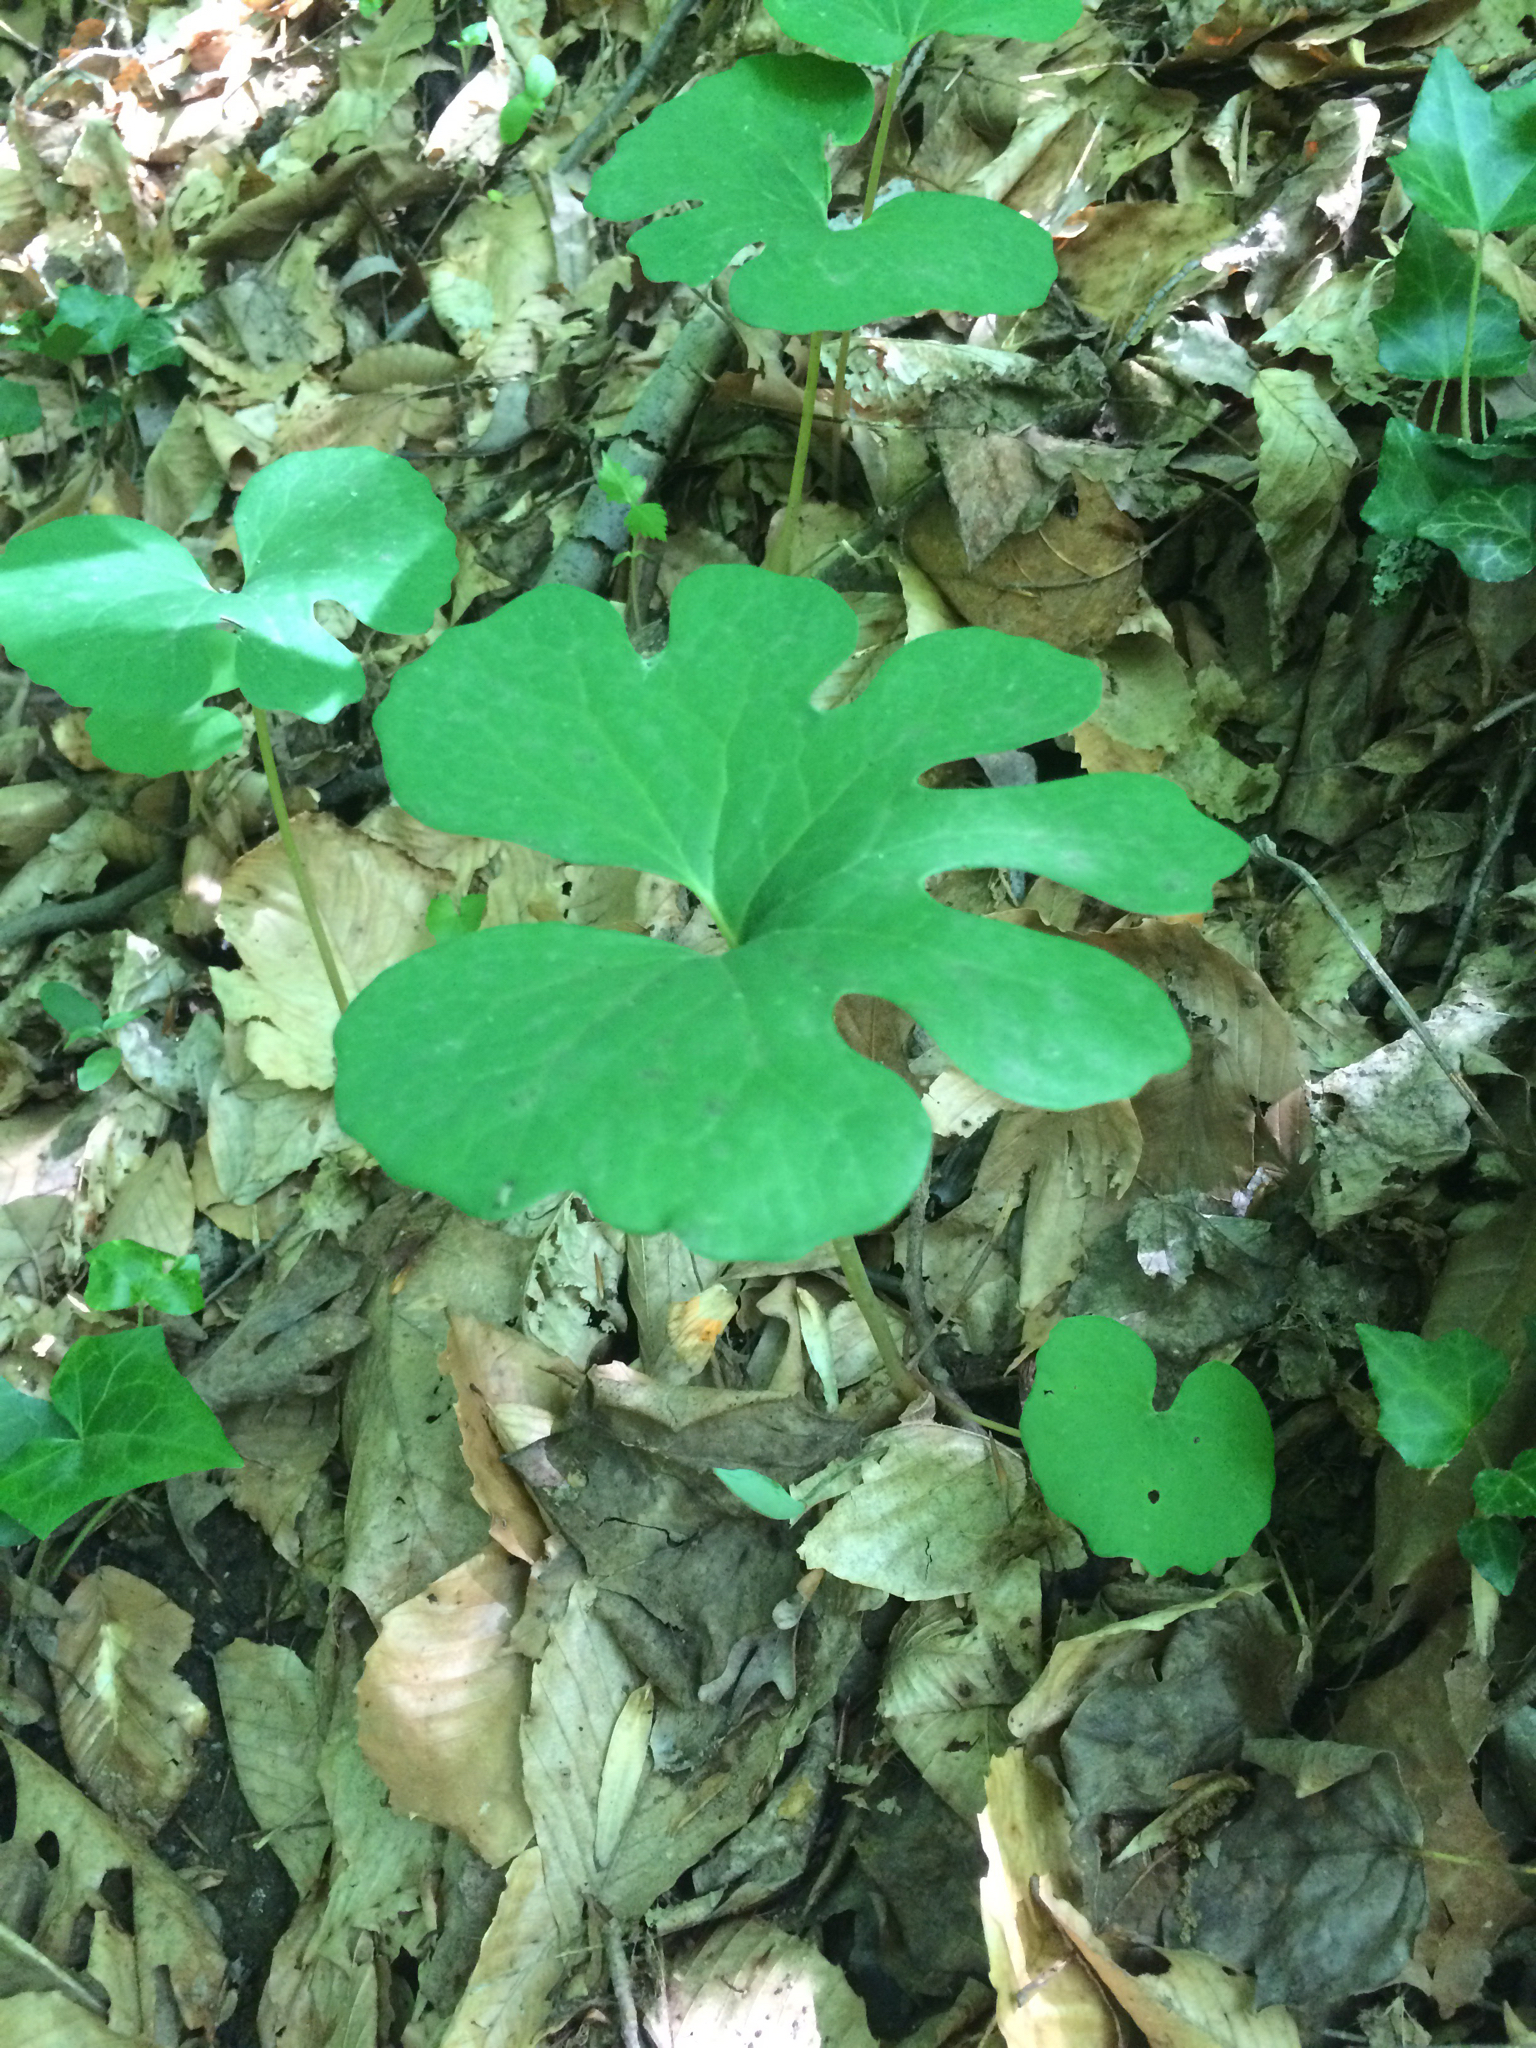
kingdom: Plantae
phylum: Tracheophyta
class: Magnoliopsida
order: Ranunculales
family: Papaveraceae
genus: Sanguinaria
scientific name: Sanguinaria canadensis
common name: Bloodroot
